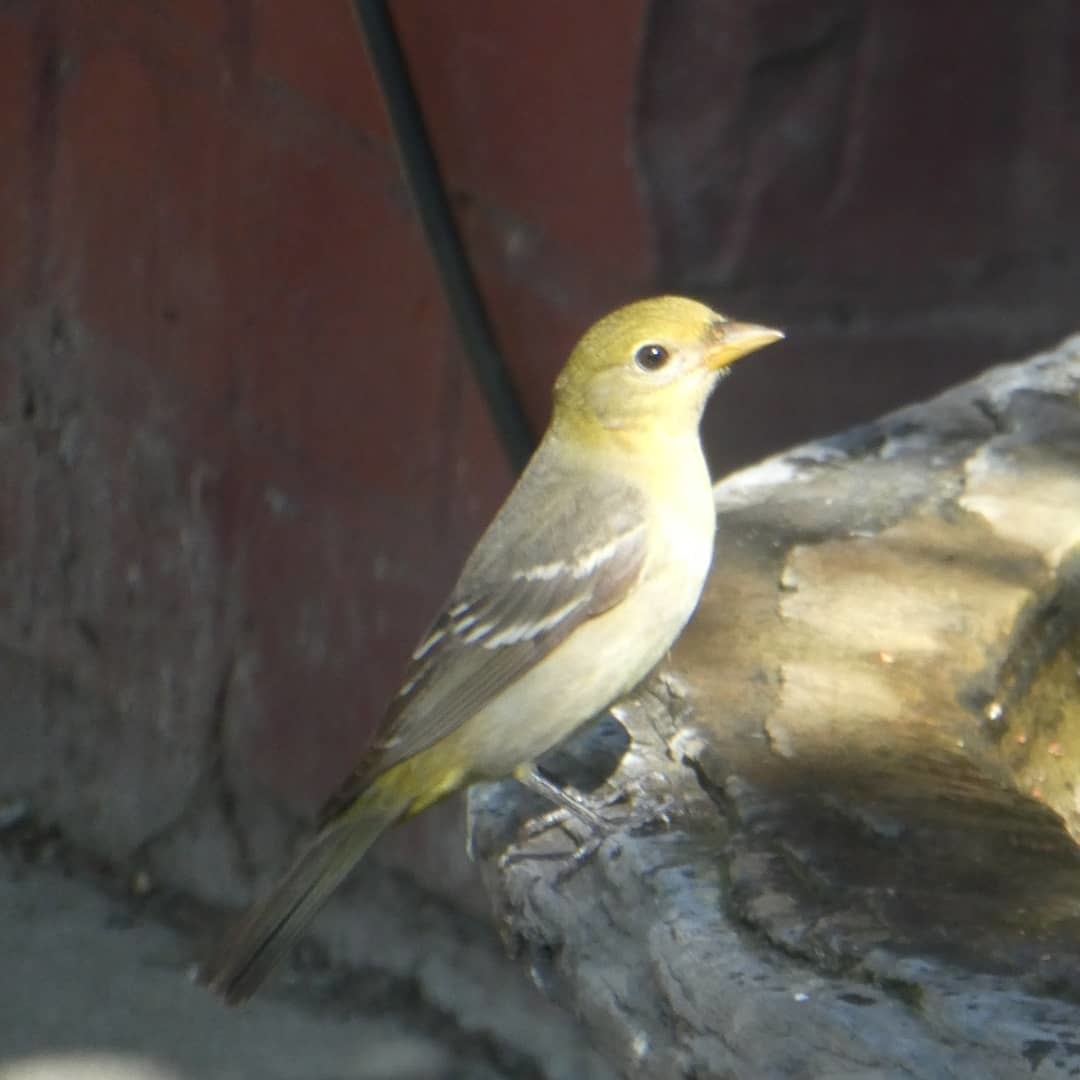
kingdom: Animalia
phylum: Chordata
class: Aves
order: Passeriformes
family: Cardinalidae
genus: Piranga
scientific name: Piranga ludoviciana
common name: Western tanager
